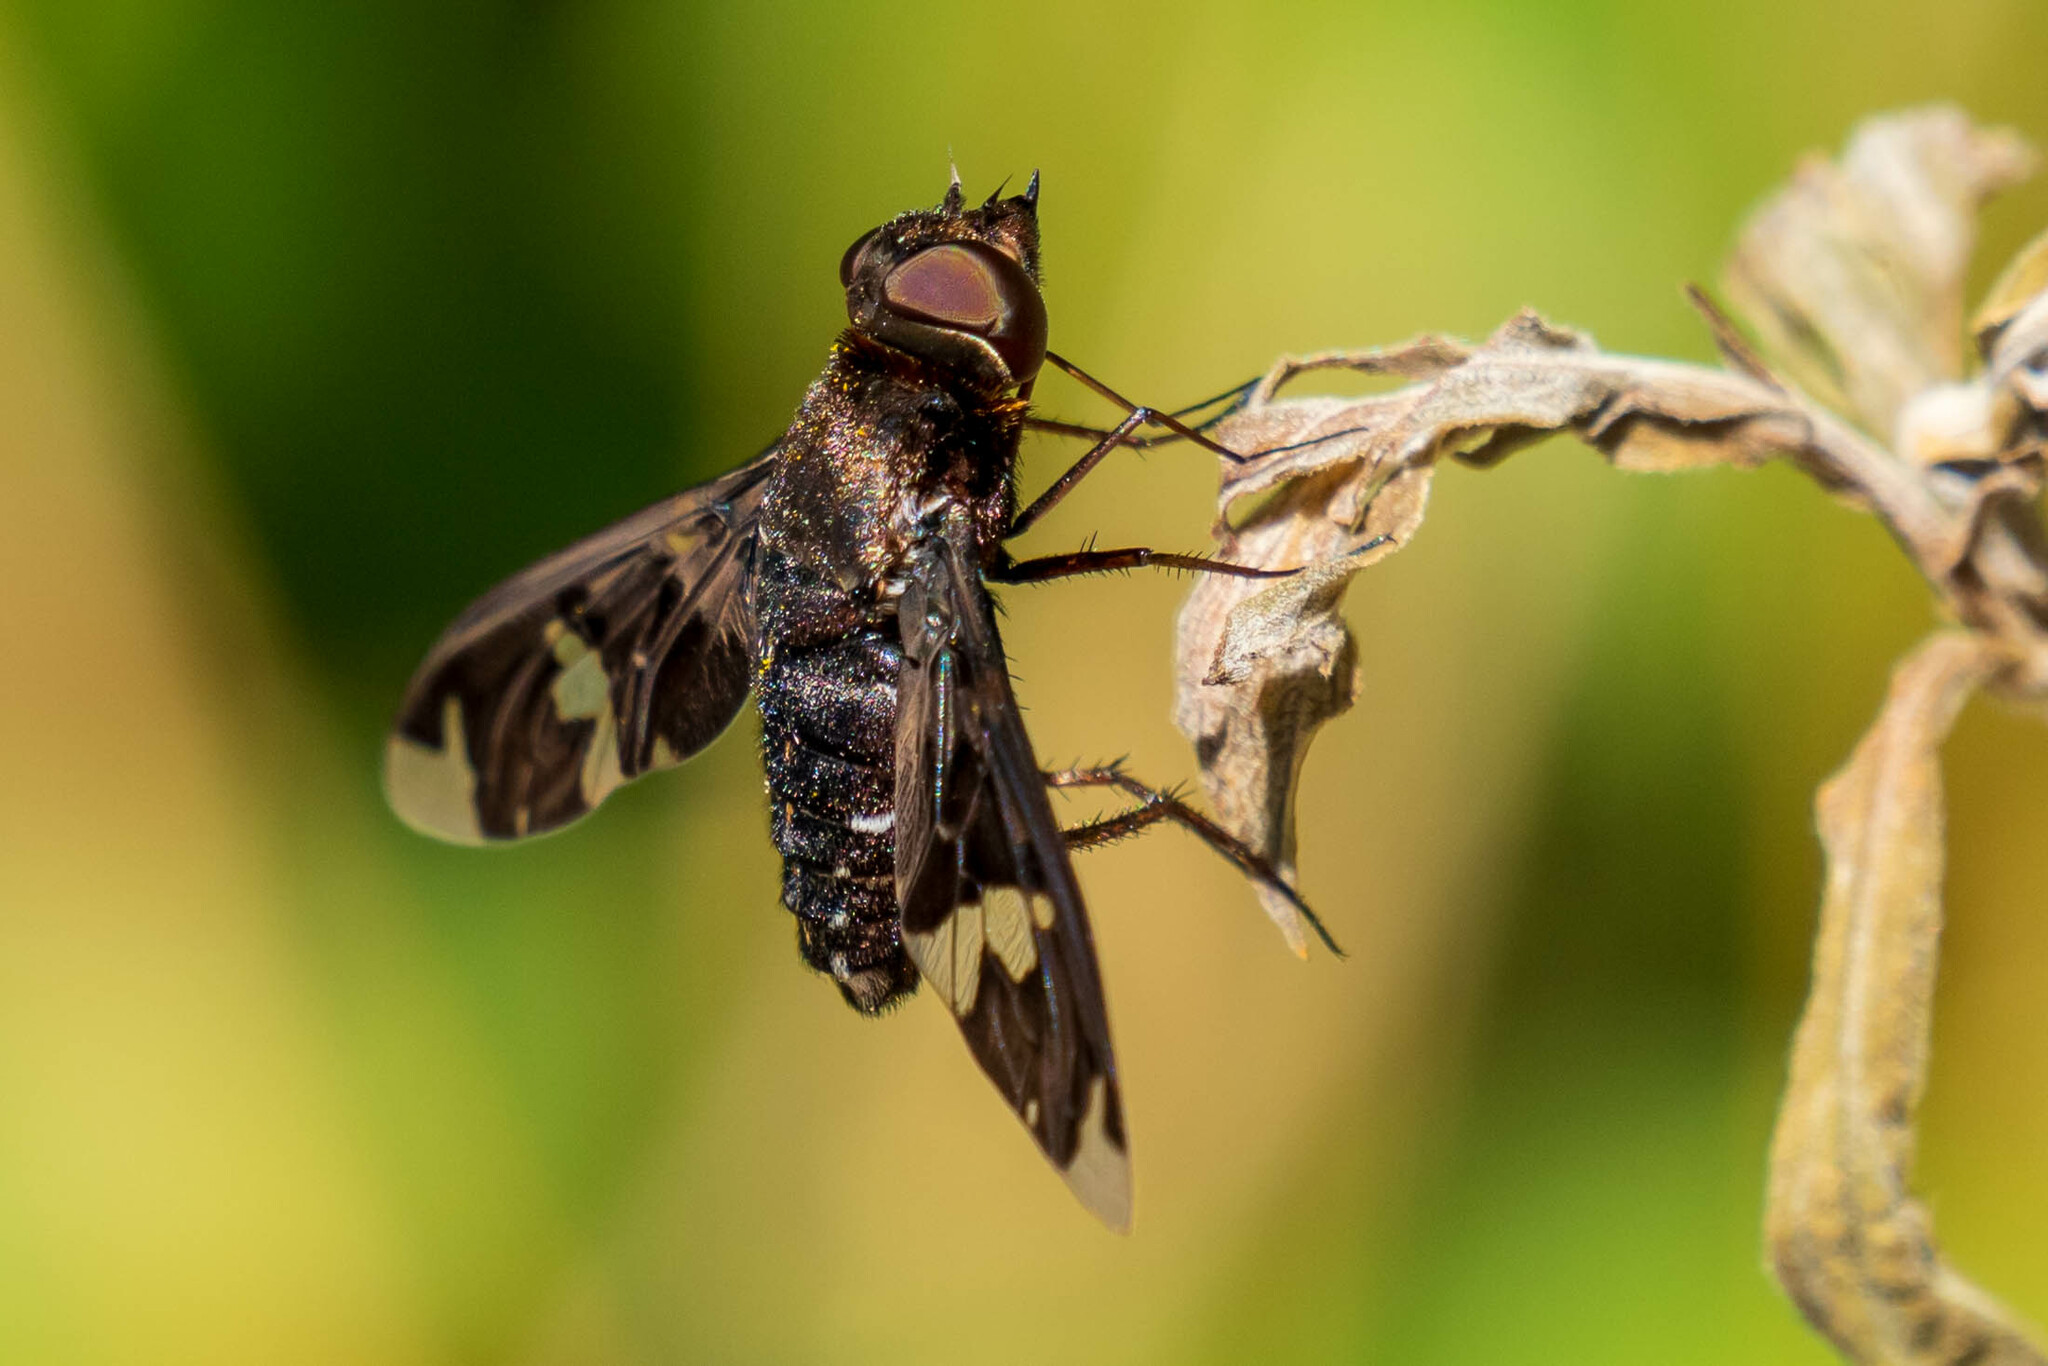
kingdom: Animalia
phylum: Arthropoda
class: Insecta
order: Diptera
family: Bombyliidae
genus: Exoprosopa
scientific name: Exoprosopa decora
